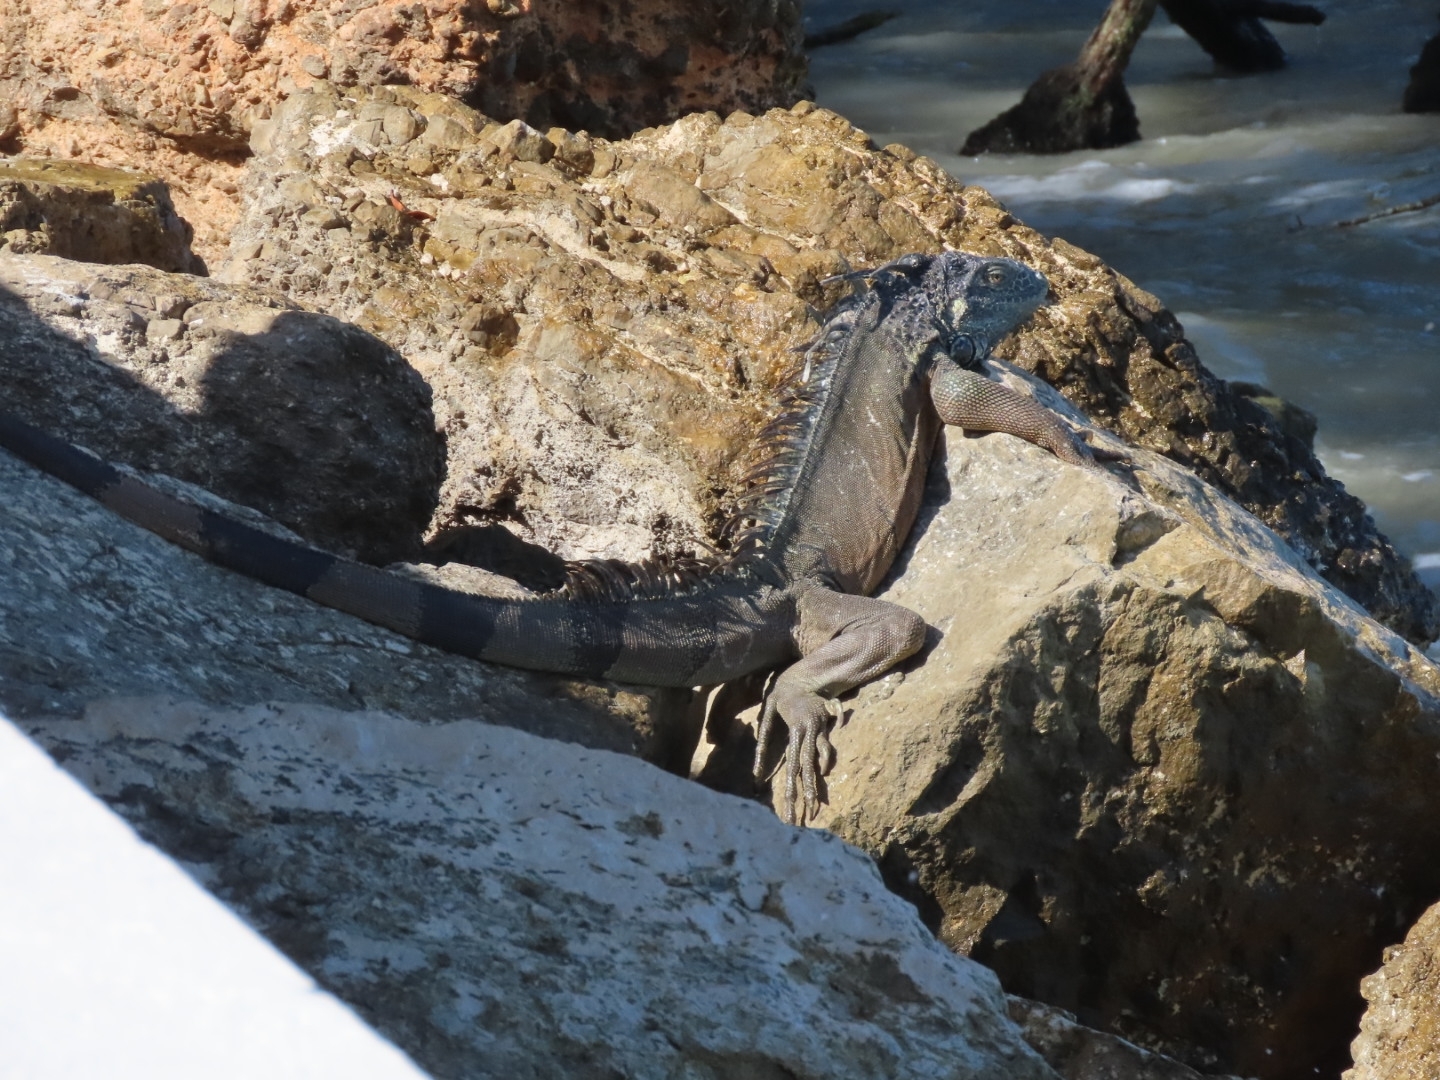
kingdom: Animalia
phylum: Chordata
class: Squamata
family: Iguanidae
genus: Iguana
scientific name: Iguana iguana
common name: Green iguana
